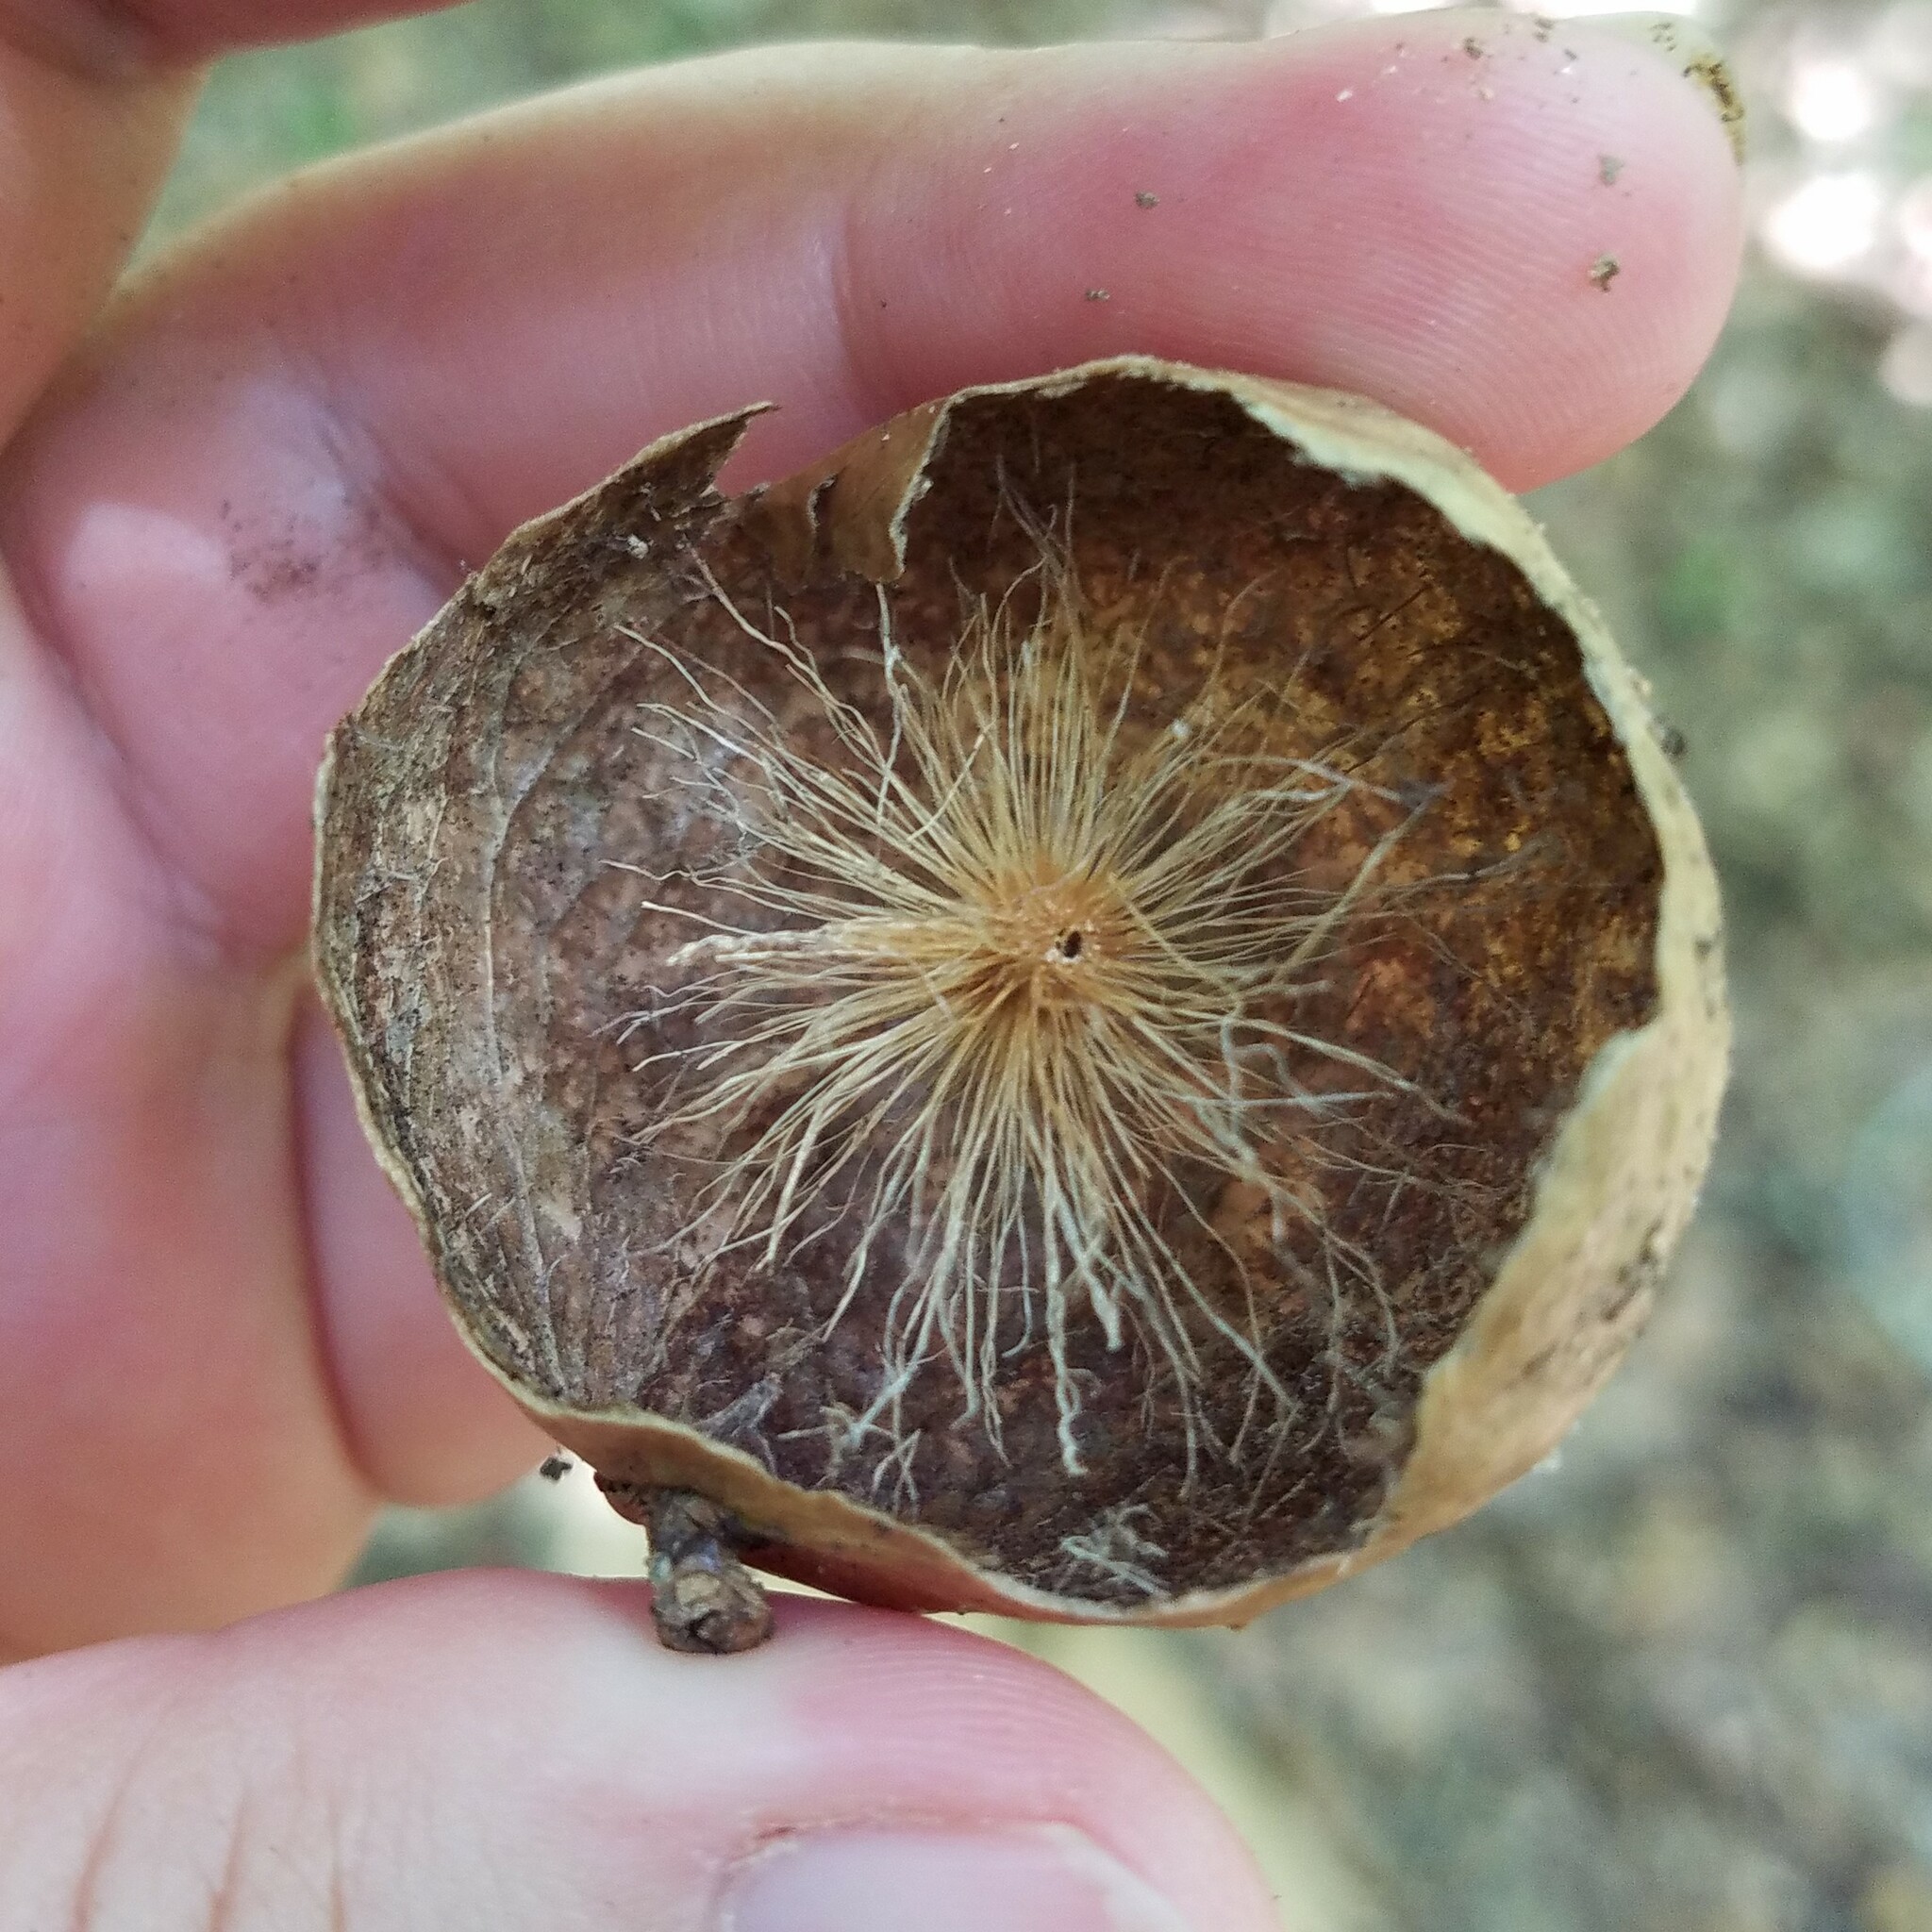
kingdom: Animalia
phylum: Arthropoda
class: Insecta
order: Hymenoptera
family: Cynipidae
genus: Amphibolips
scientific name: Amphibolips
